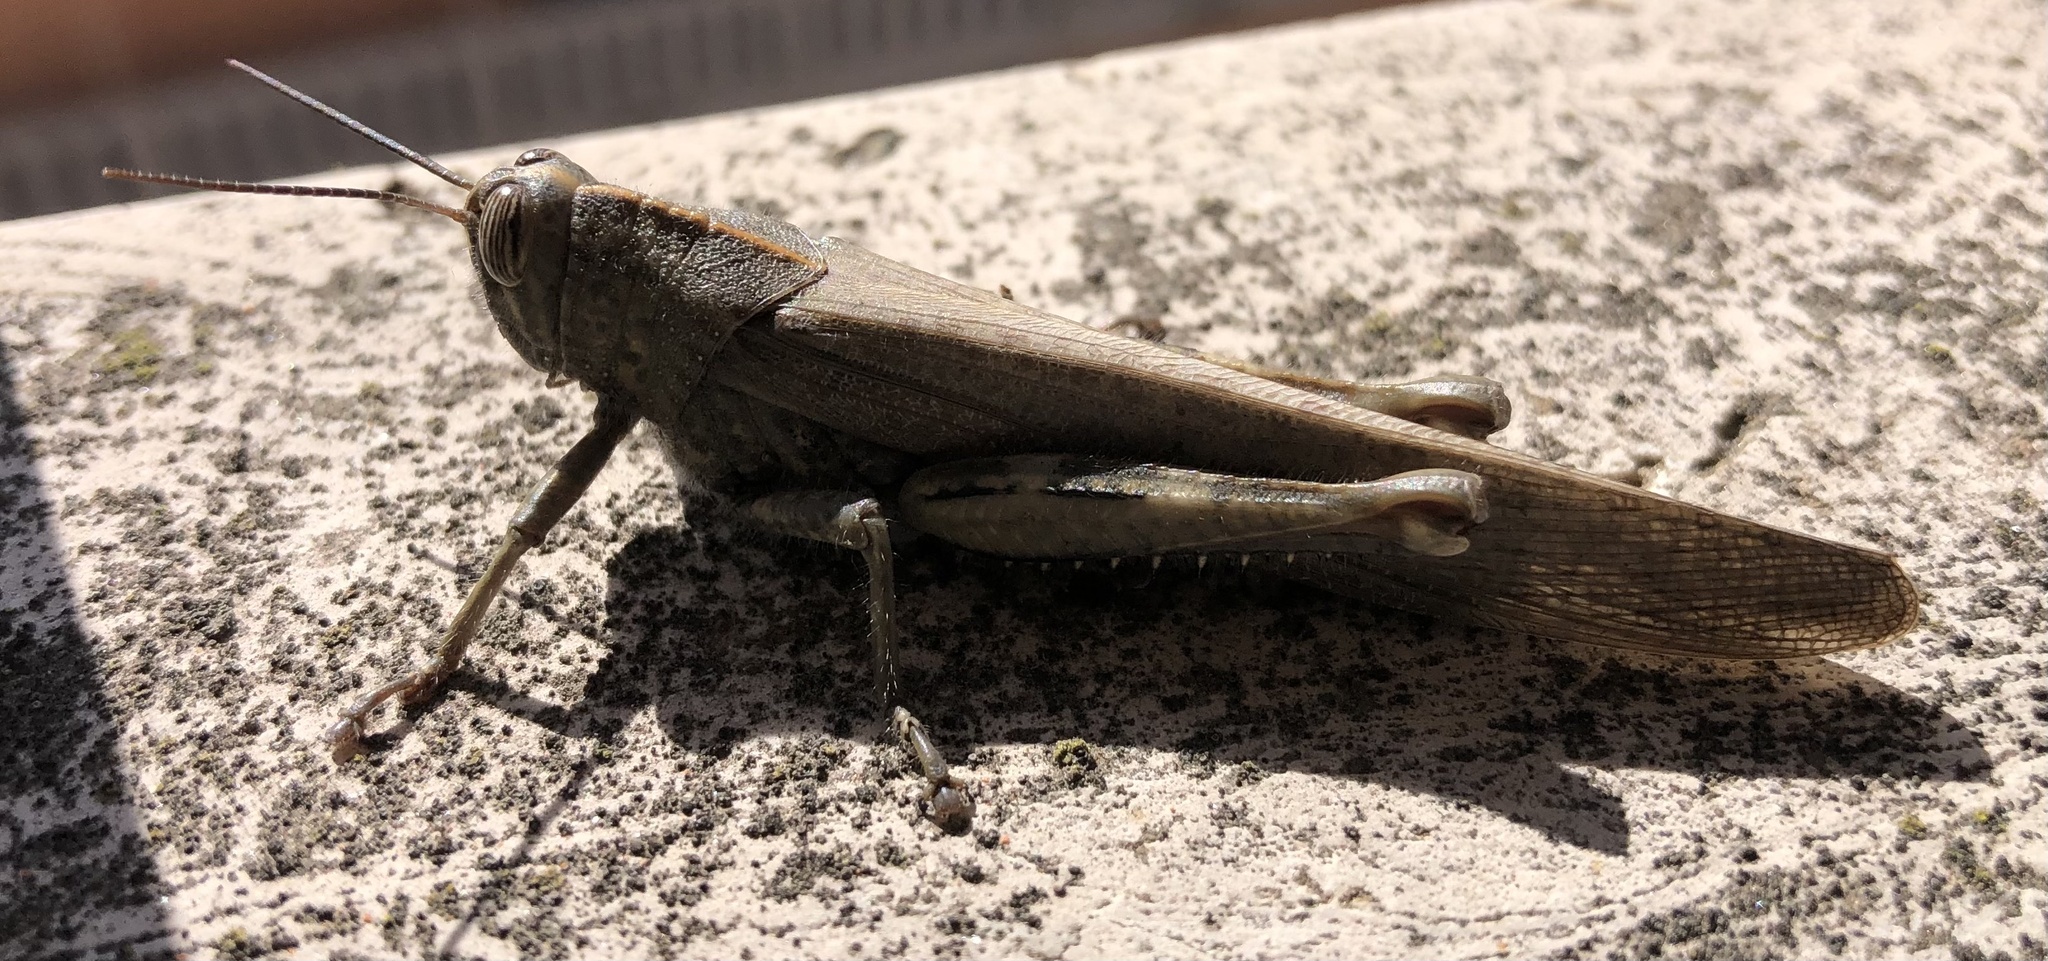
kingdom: Animalia
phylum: Arthropoda
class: Insecta
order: Orthoptera
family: Acrididae
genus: Anacridium
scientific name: Anacridium aegyptium
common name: Egyptian grasshopper
